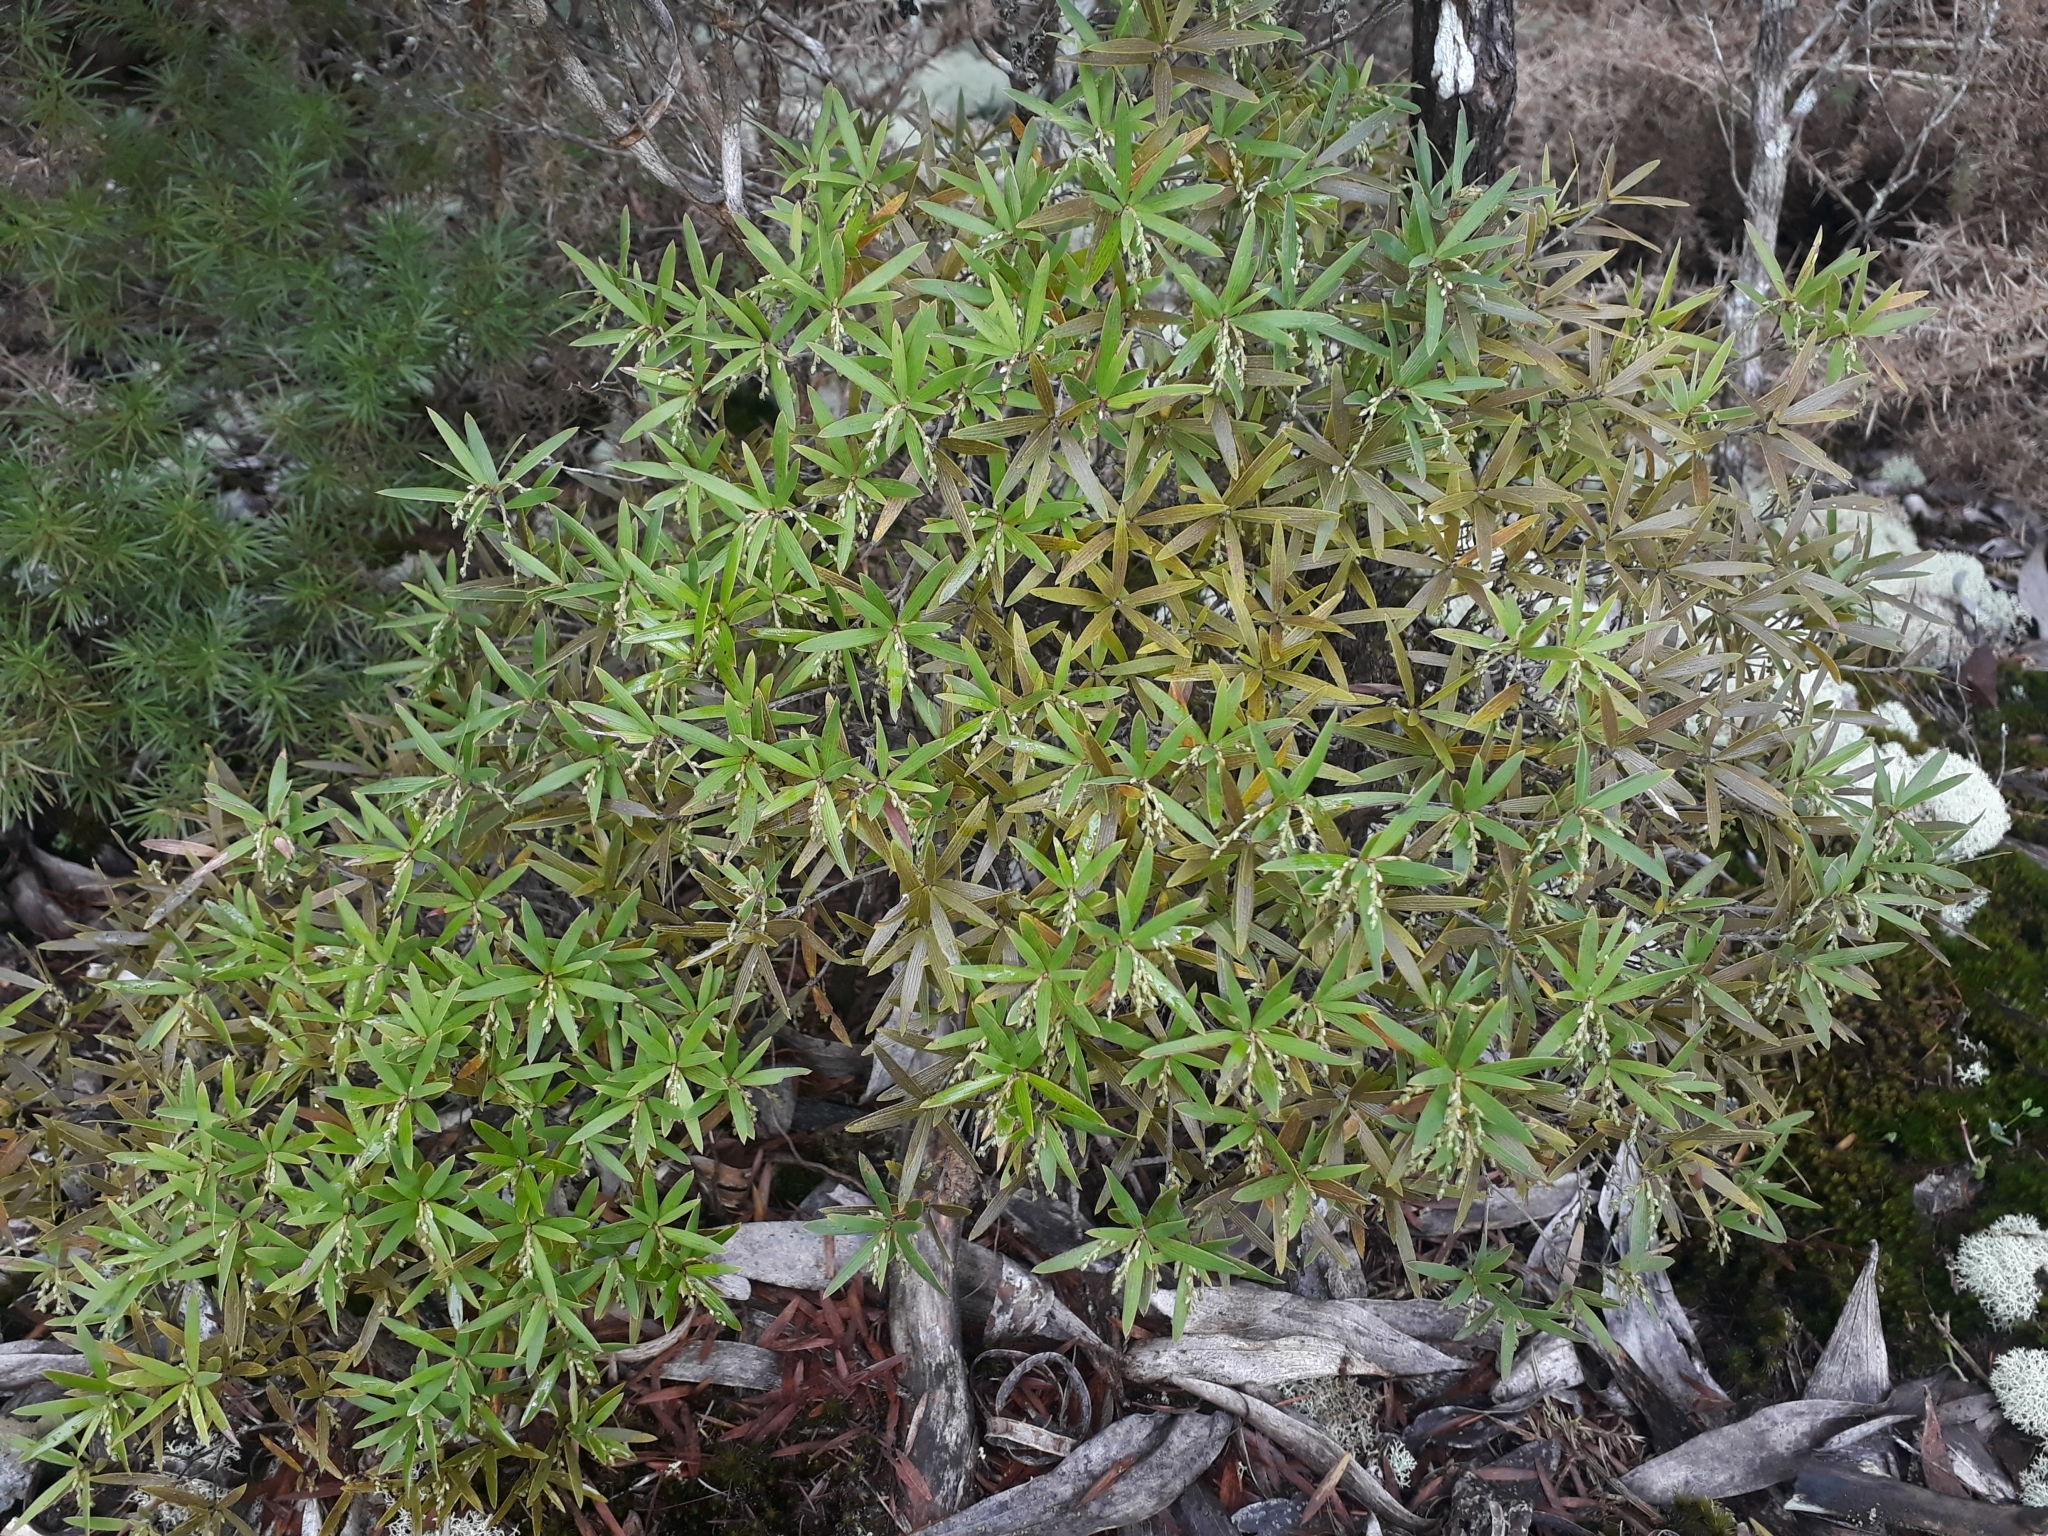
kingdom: Plantae
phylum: Tracheophyta
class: Magnoliopsida
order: Ericales
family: Ericaceae
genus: Leucopogon
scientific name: Leucopogon fasciculatus
